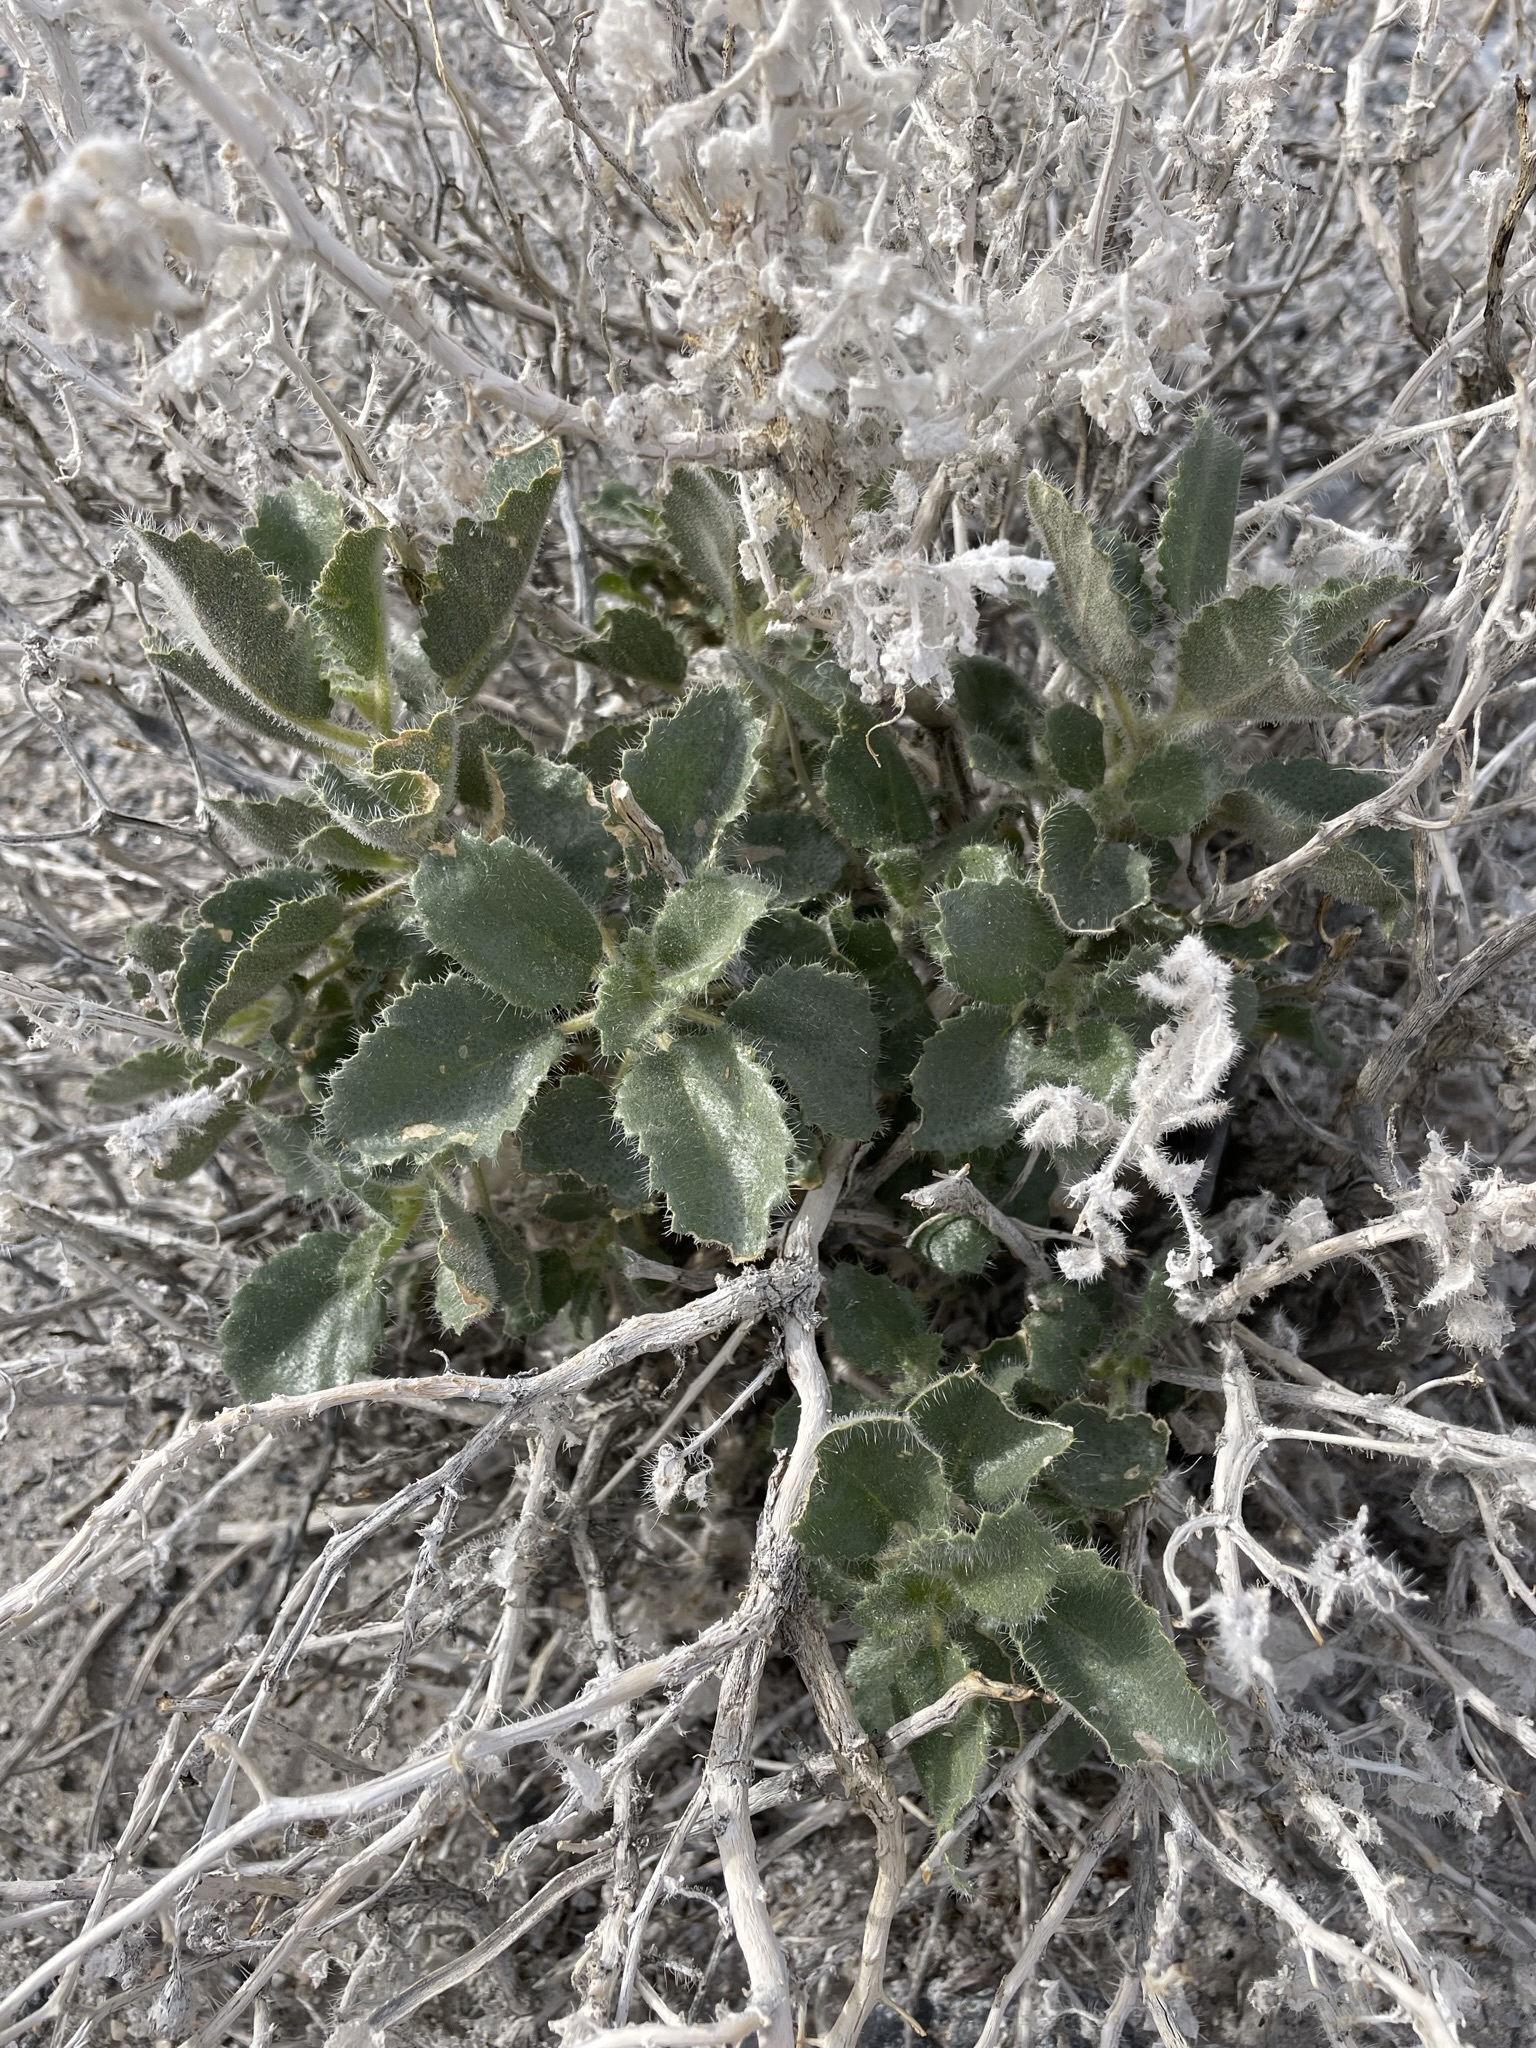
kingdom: Plantae
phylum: Tracheophyta
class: Magnoliopsida
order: Cornales
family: Loasaceae
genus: Eucnide
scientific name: Eucnide urens
